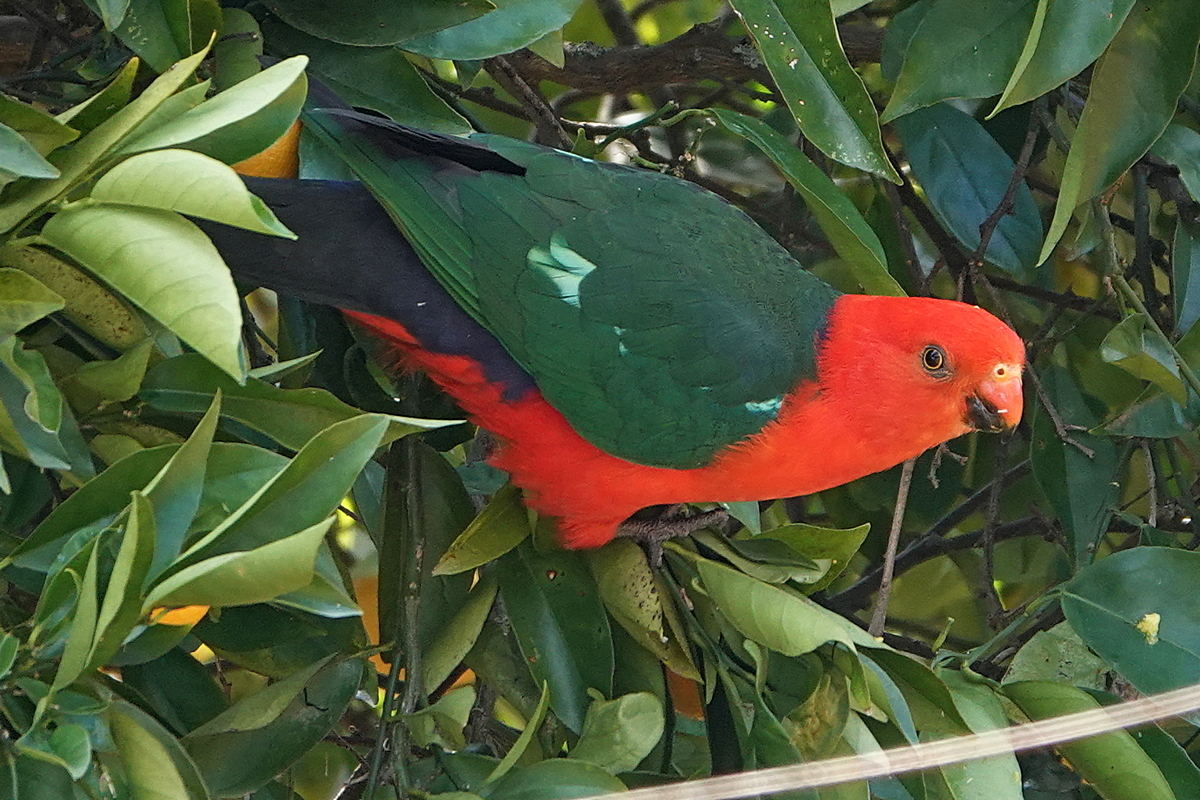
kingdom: Animalia
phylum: Chordata
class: Aves
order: Psittaciformes
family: Psittacidae
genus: Alisterus
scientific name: Alisterus scapularis
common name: Australian king parrot
